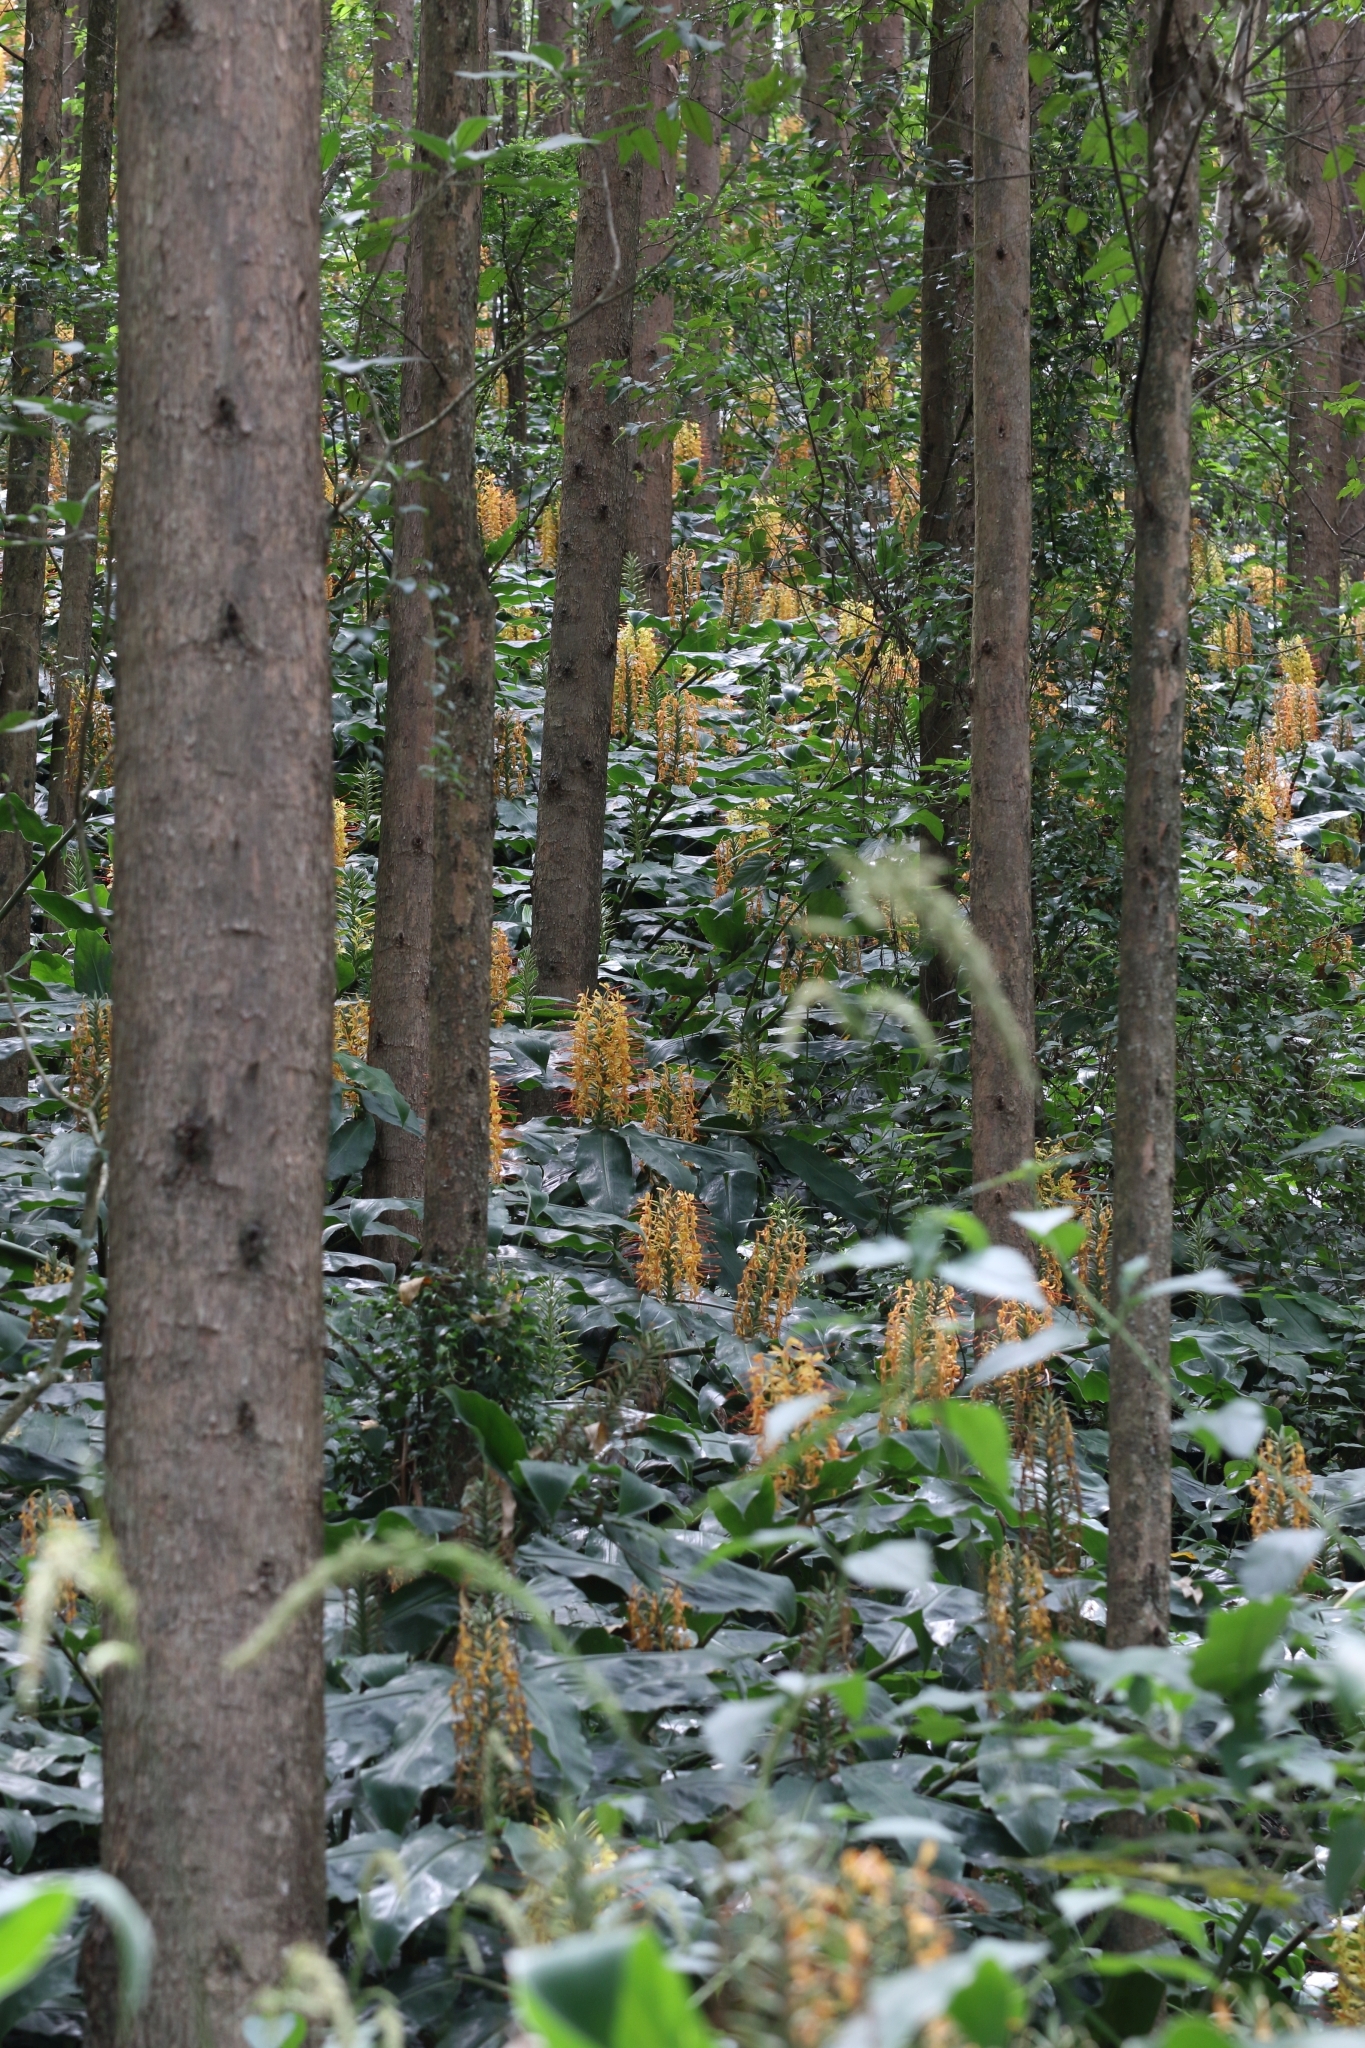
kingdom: Plantae
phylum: Tracheophyta
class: Liliopsida
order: Zingiberales
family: Zingiberaceae
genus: Hedychium
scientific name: Hedychium gardnerianum
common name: Himalayan ginger
